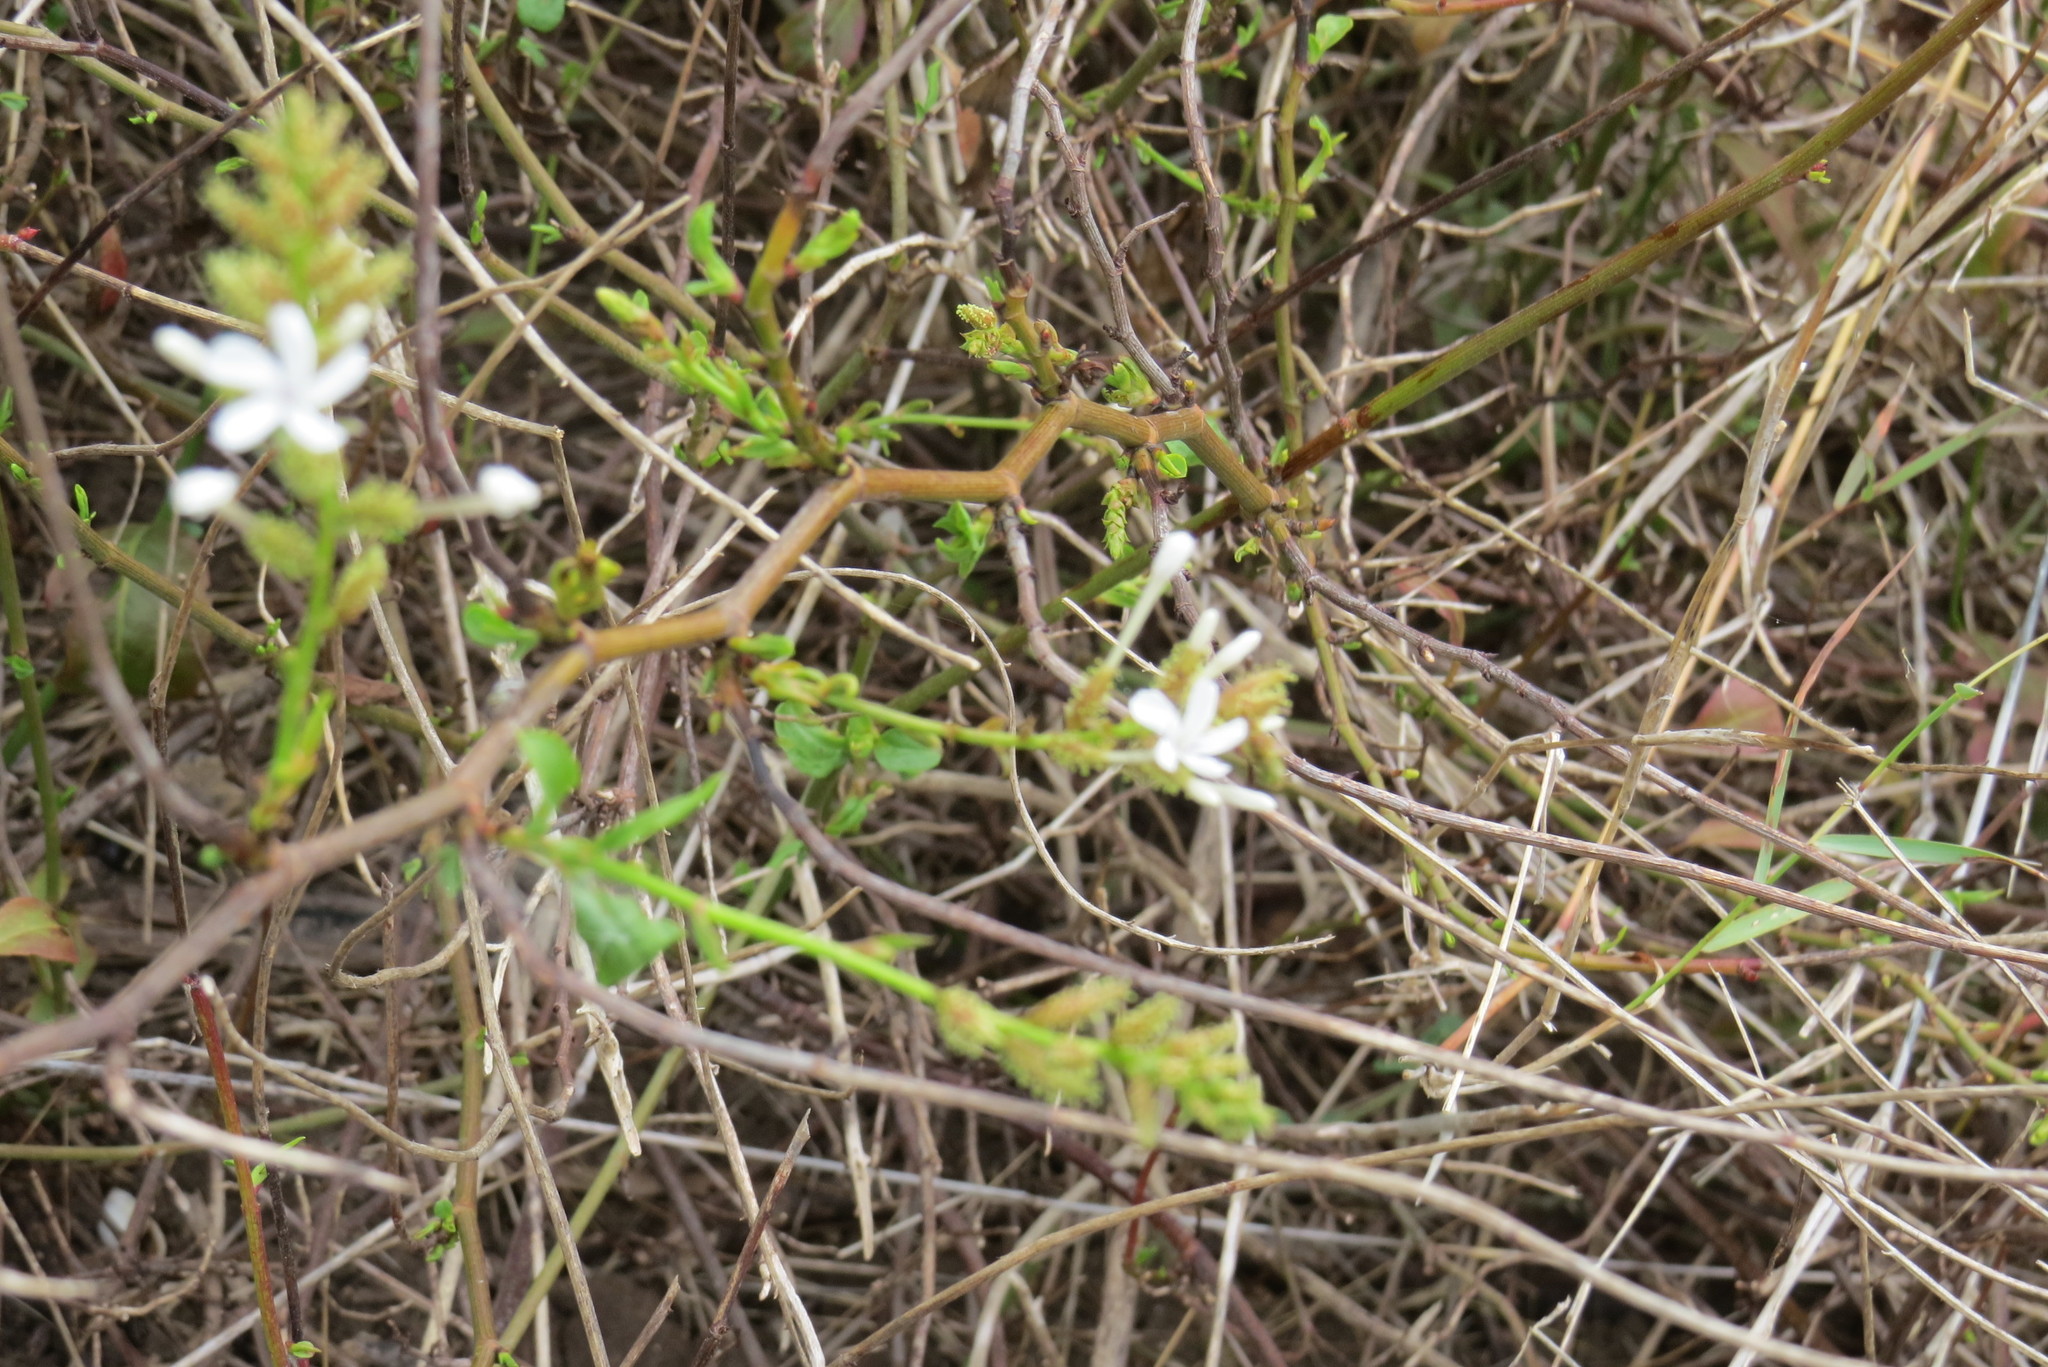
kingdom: Plantae
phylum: Tracheophyta
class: Magnoliopsida
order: Caryophyllales
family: Plumbaginaceae
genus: Plumbago
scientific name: Plumbago zeylanica
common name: Doctorbush
